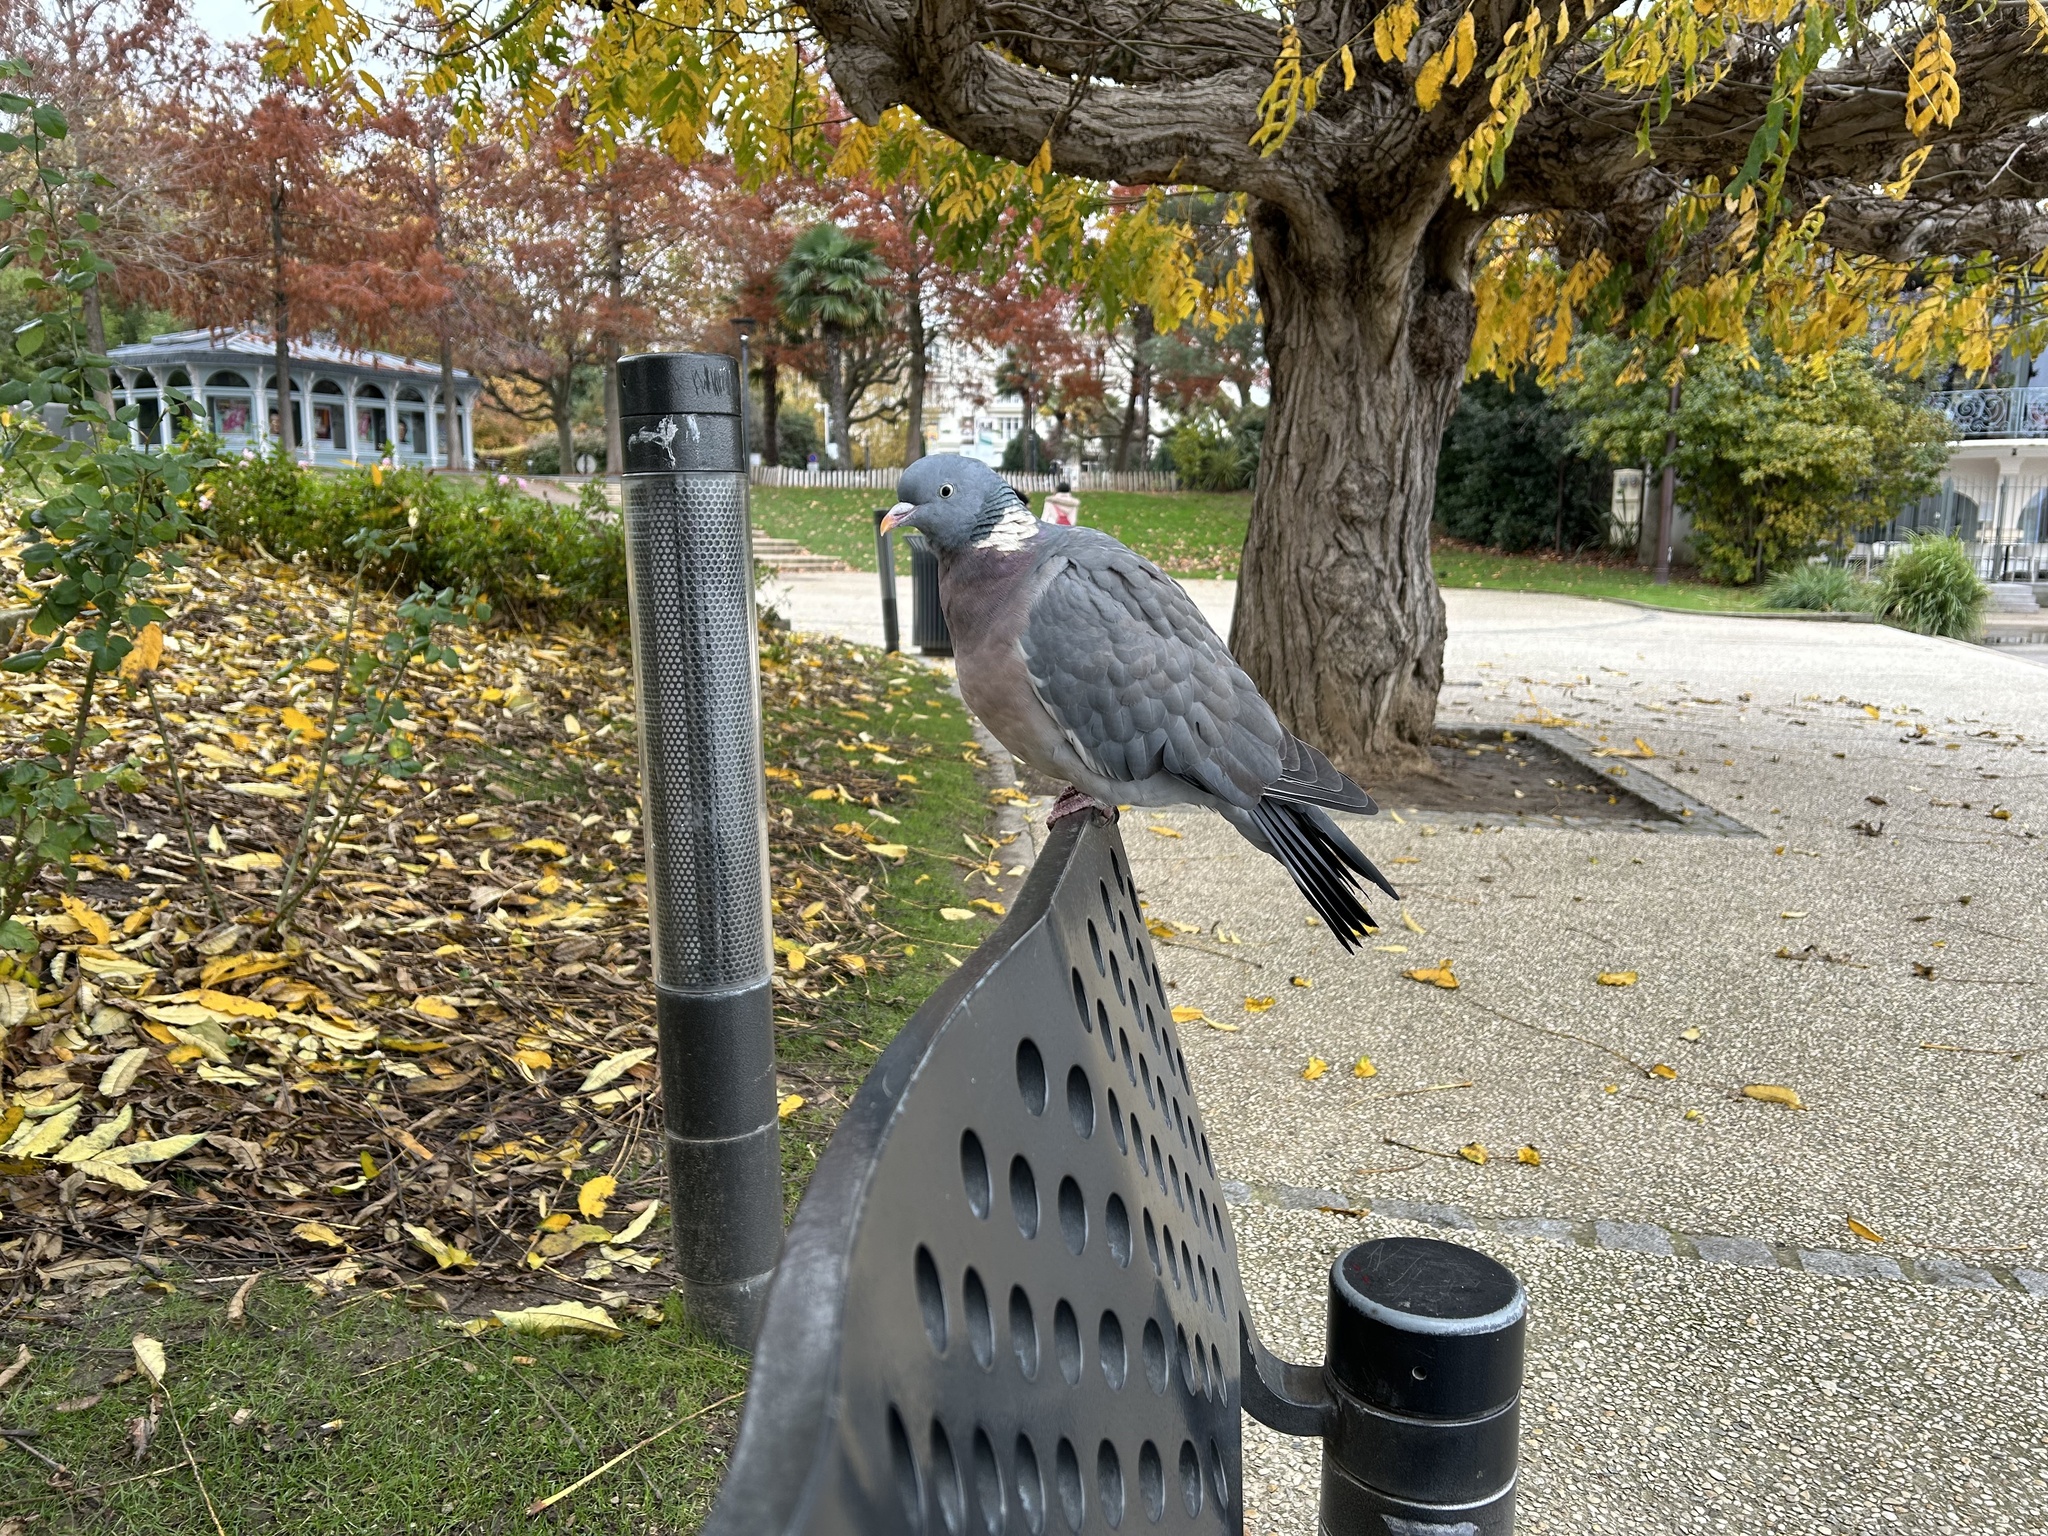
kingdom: Animalia
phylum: Chordata
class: Aves
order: Columbiformes
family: Columbidae
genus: Columba
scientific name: Columba palumbus
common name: Common wood pigeon
